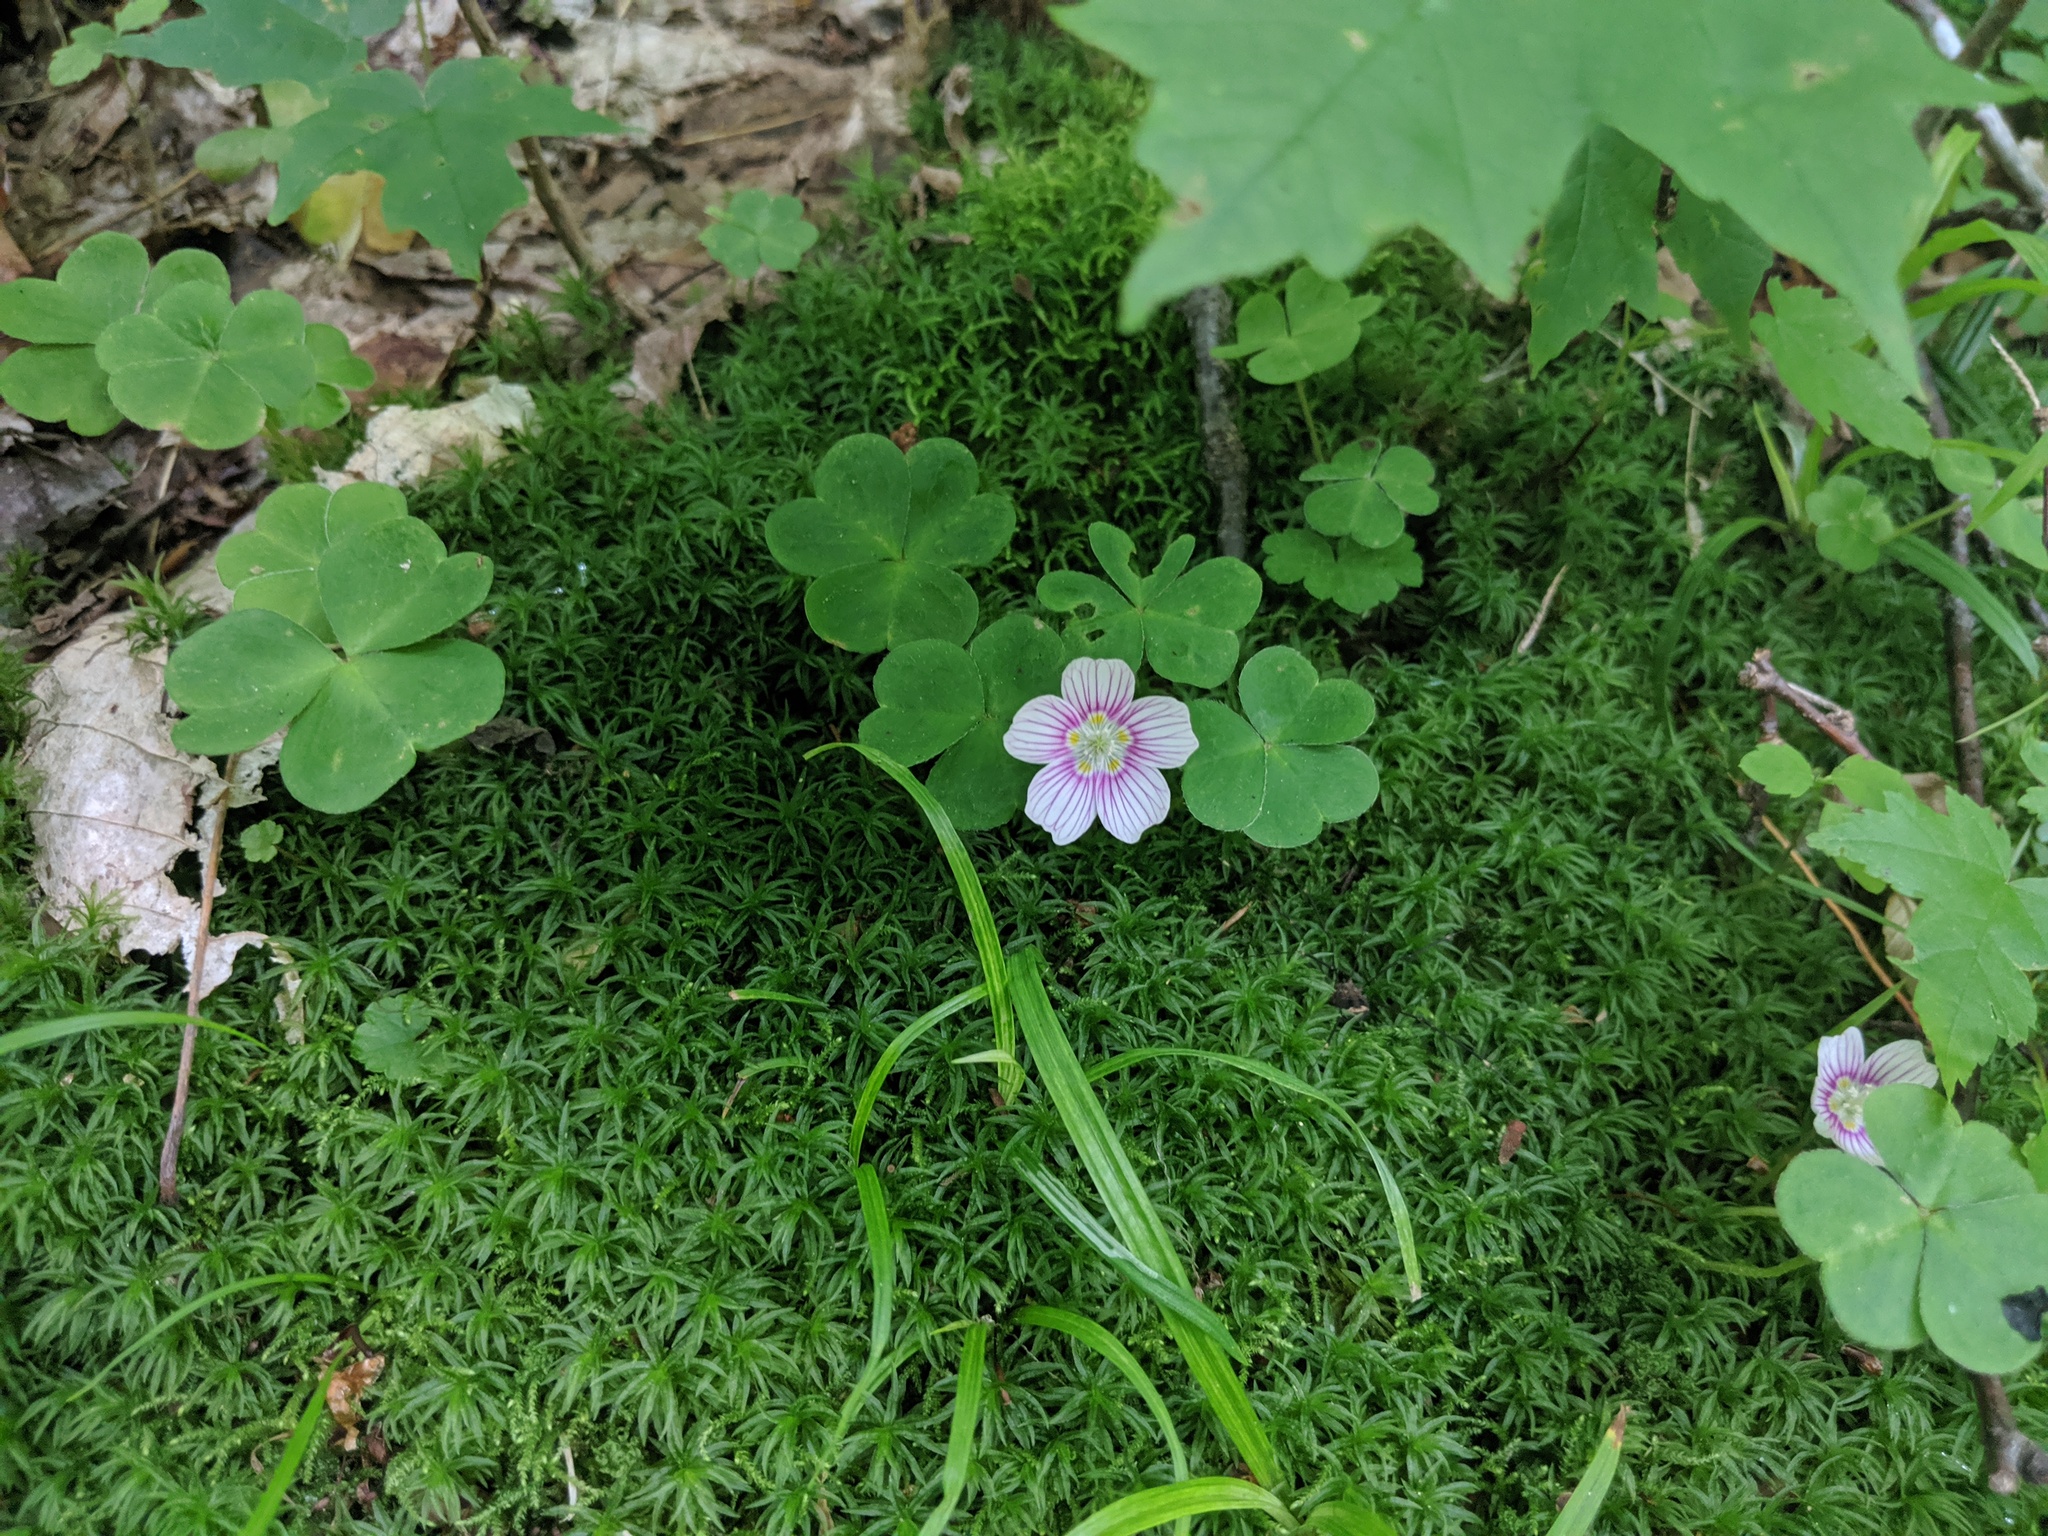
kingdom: Plantae
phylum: Tracheophyta
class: Magnoliopsida
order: Oxalidales
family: Oxalidaceae
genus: Oxalis
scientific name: Oxalis montana
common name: American wood-sorrel
